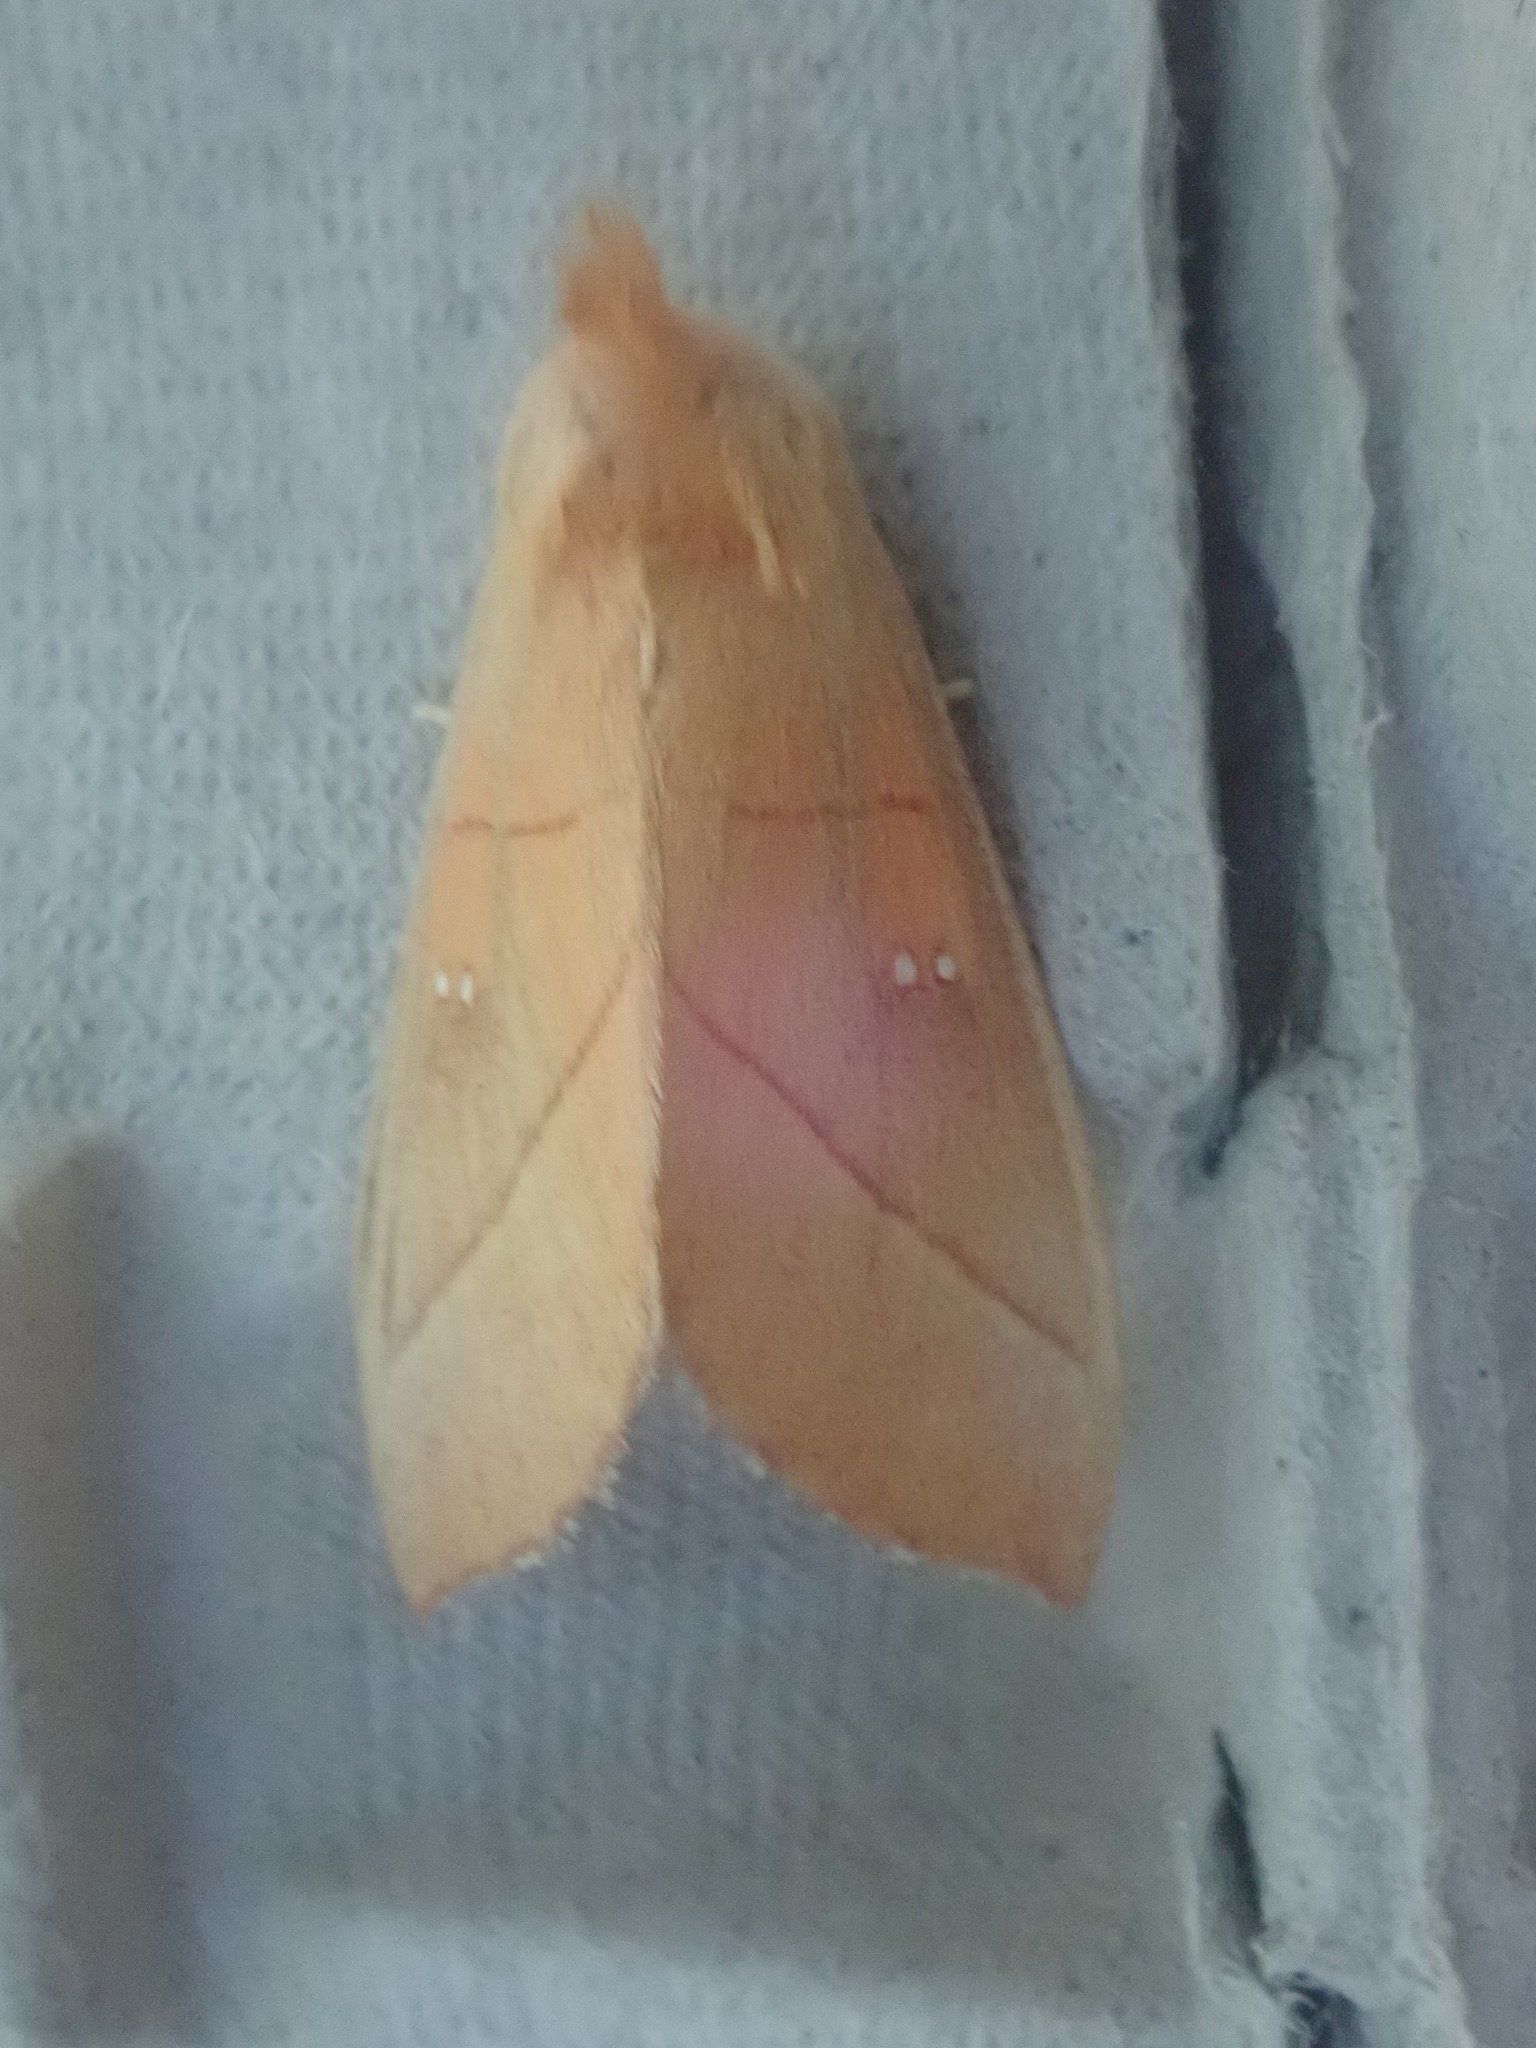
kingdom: Animalia
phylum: Arthropoda
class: Insecta
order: Lepidoptera
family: Notodontidae
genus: Nadata
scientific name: Nadata gibbosa
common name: White-dotted prominent
